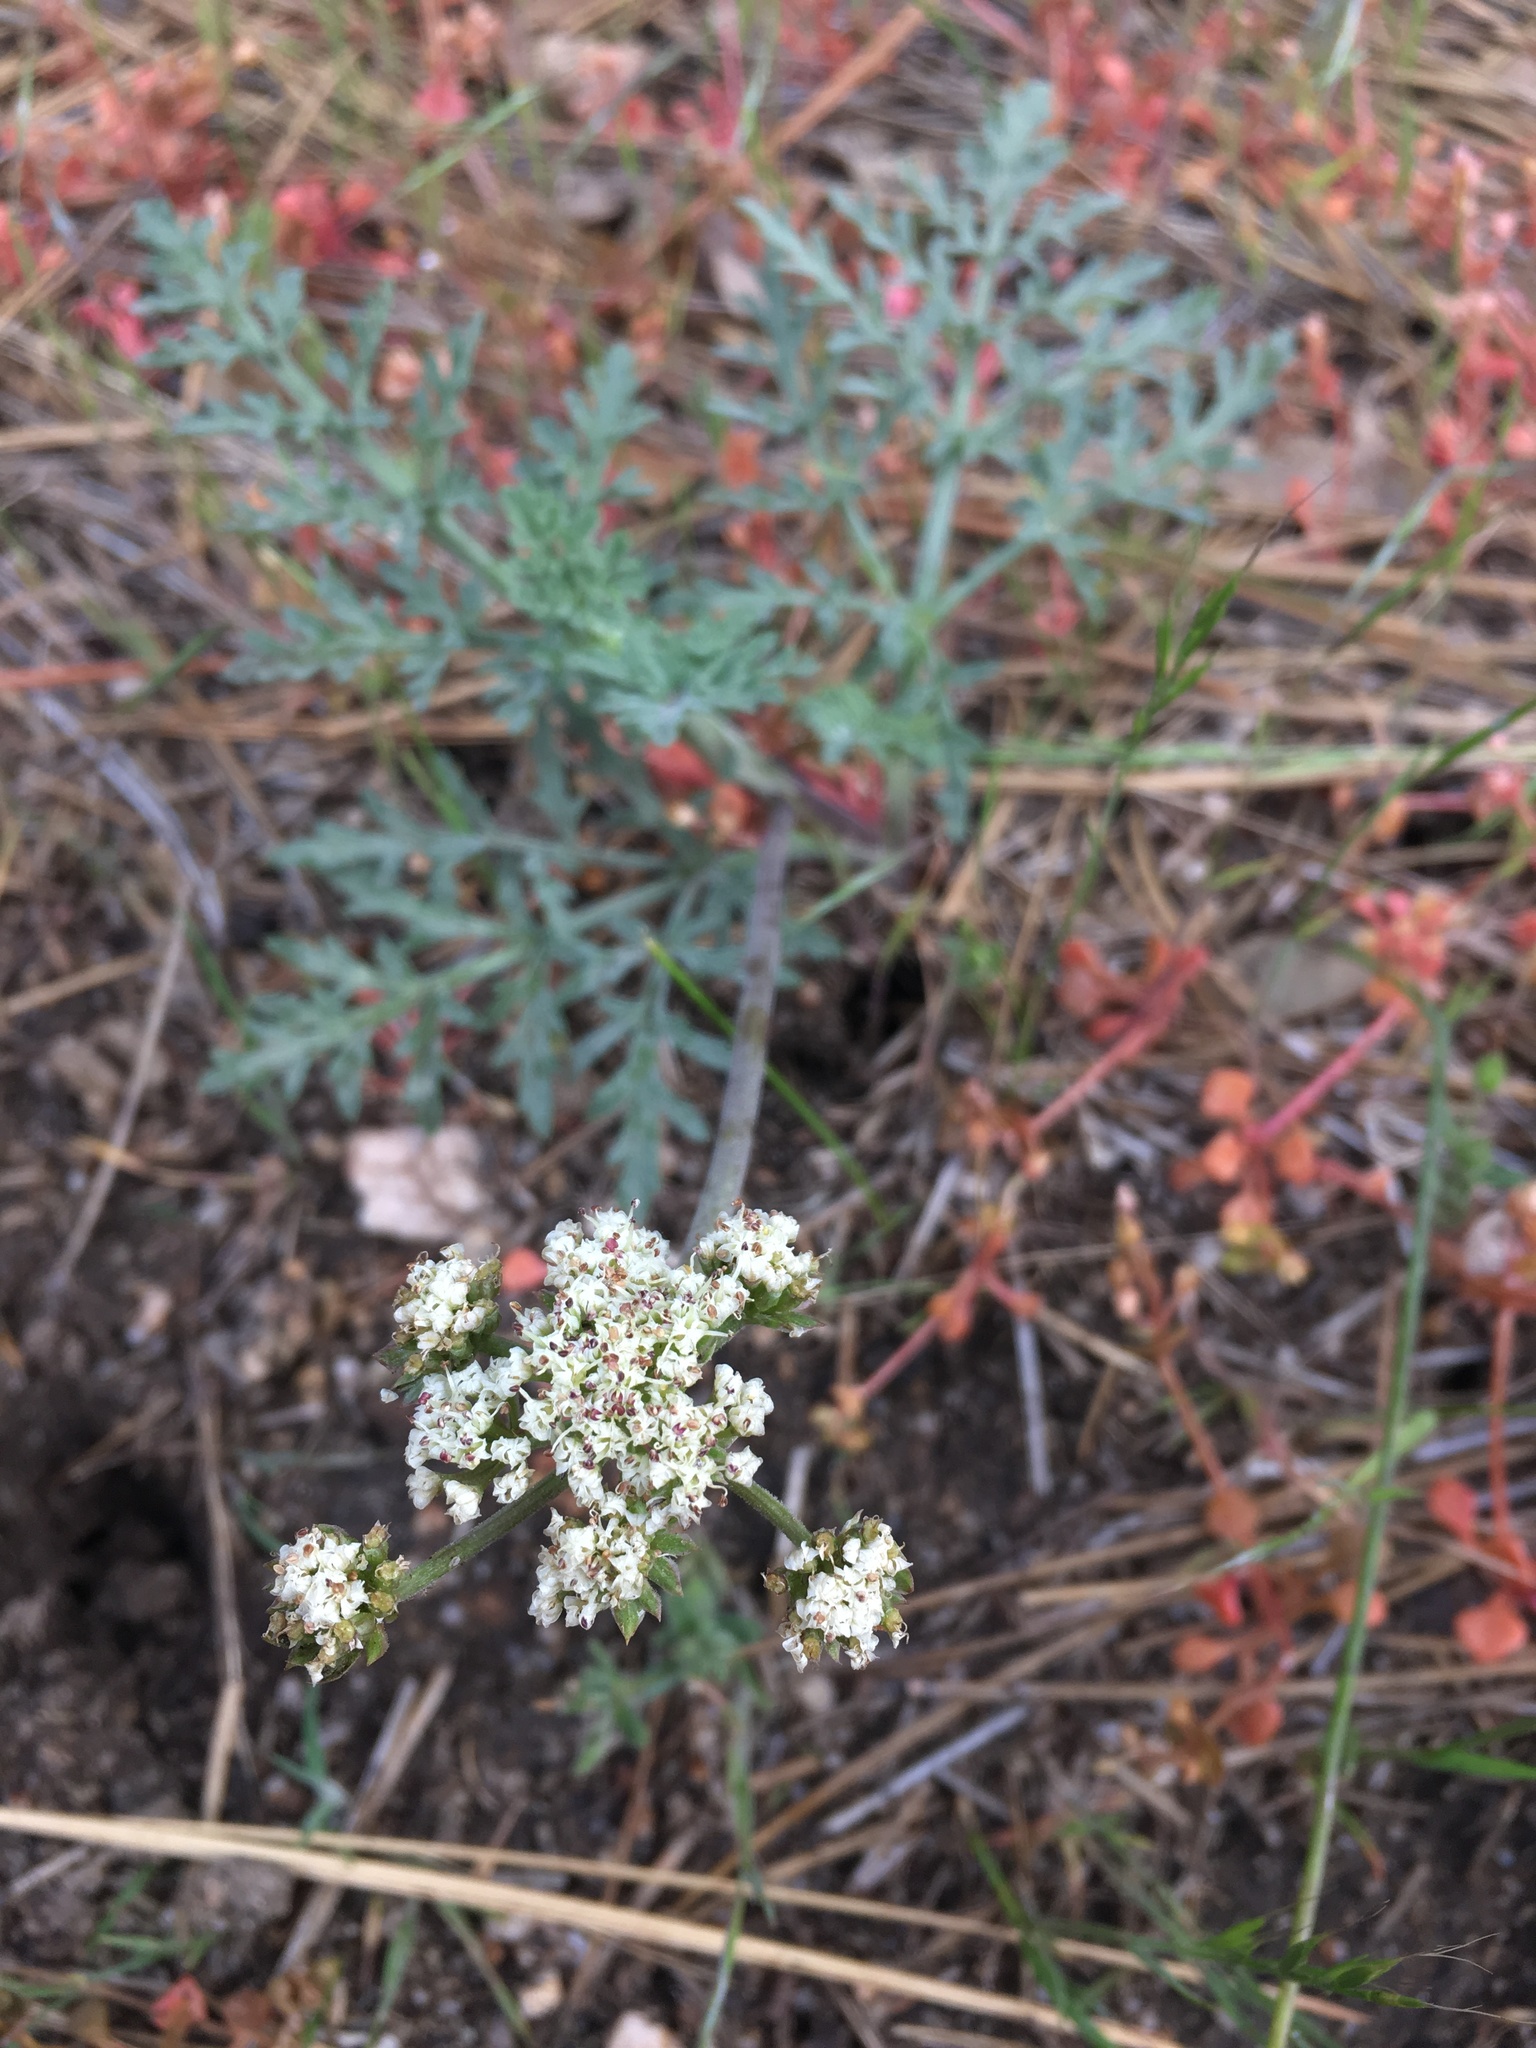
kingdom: Plantae
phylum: Tracheophyta
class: Magnoliopsida
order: Apiales
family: Apiaceae
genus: Lomatium
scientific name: Lomatium nevadense
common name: Nevada lomatium
